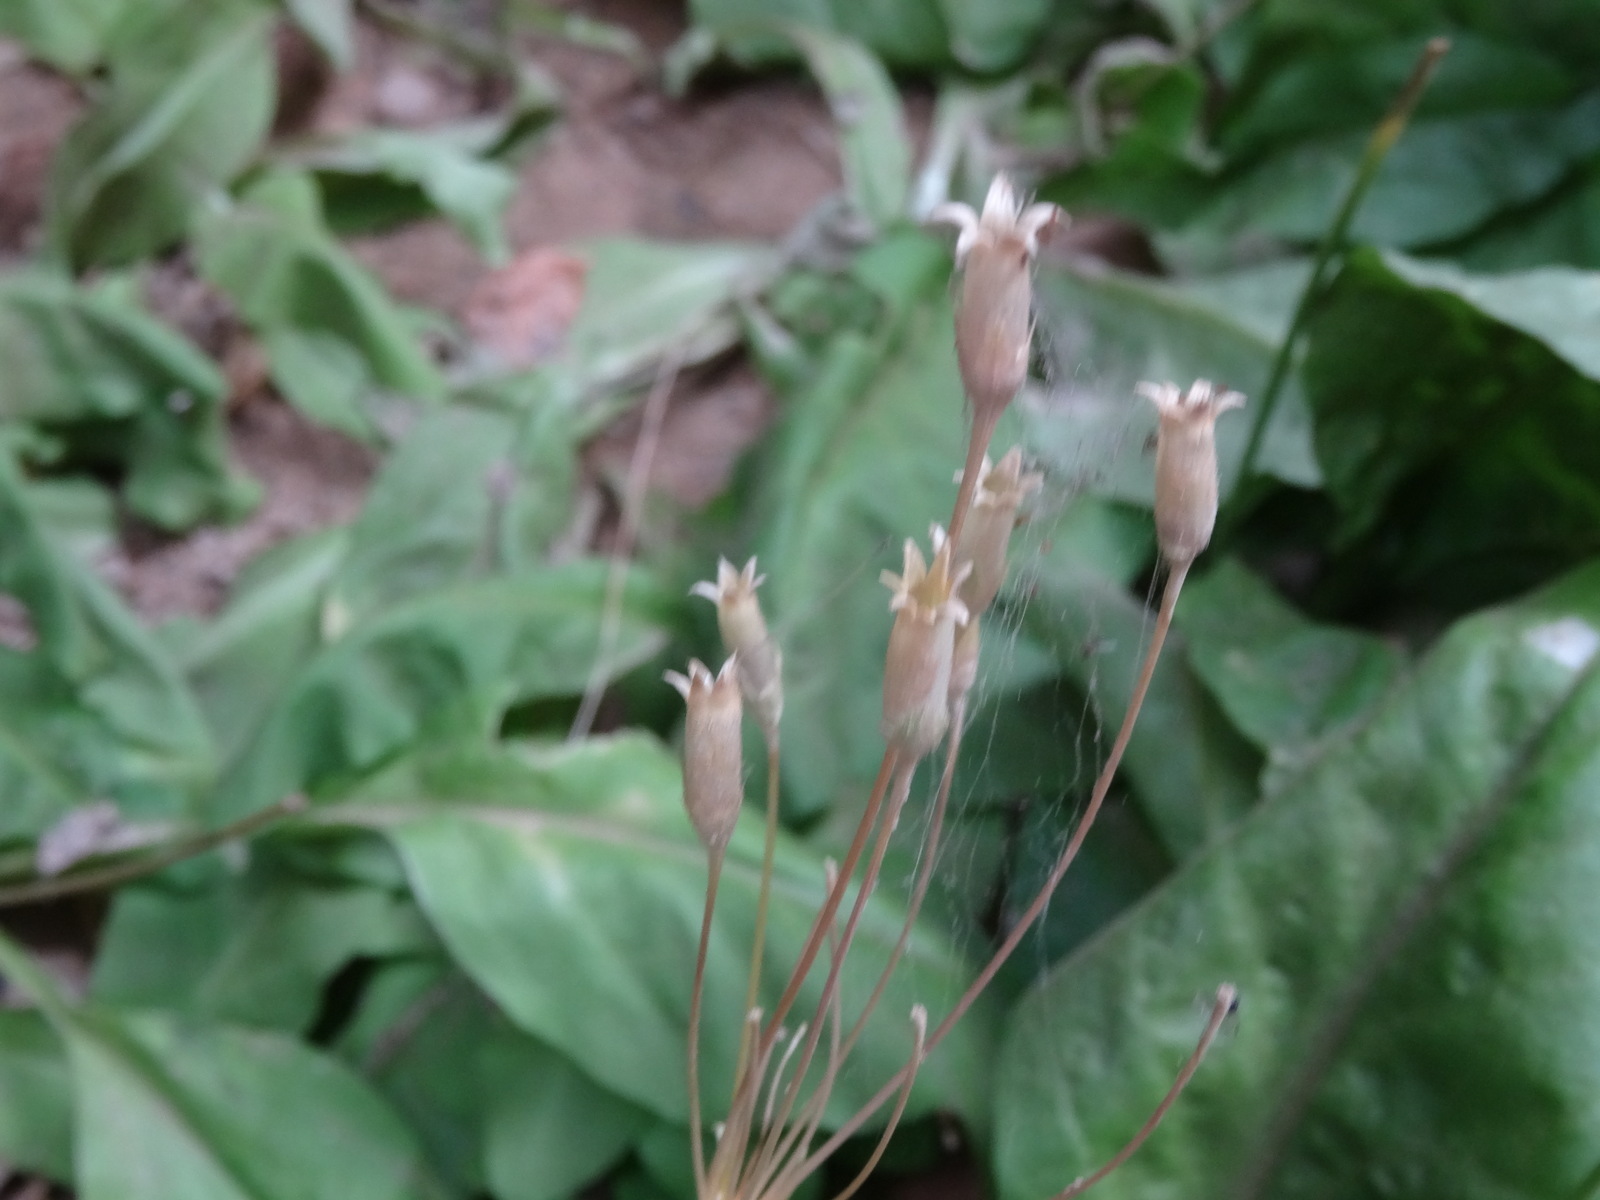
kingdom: Plantae
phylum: Tracheophyta
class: Magnoliopsida
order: Ericales
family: Primulaceae
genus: Dodecatheon
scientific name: Dodecatheon pulchellum
